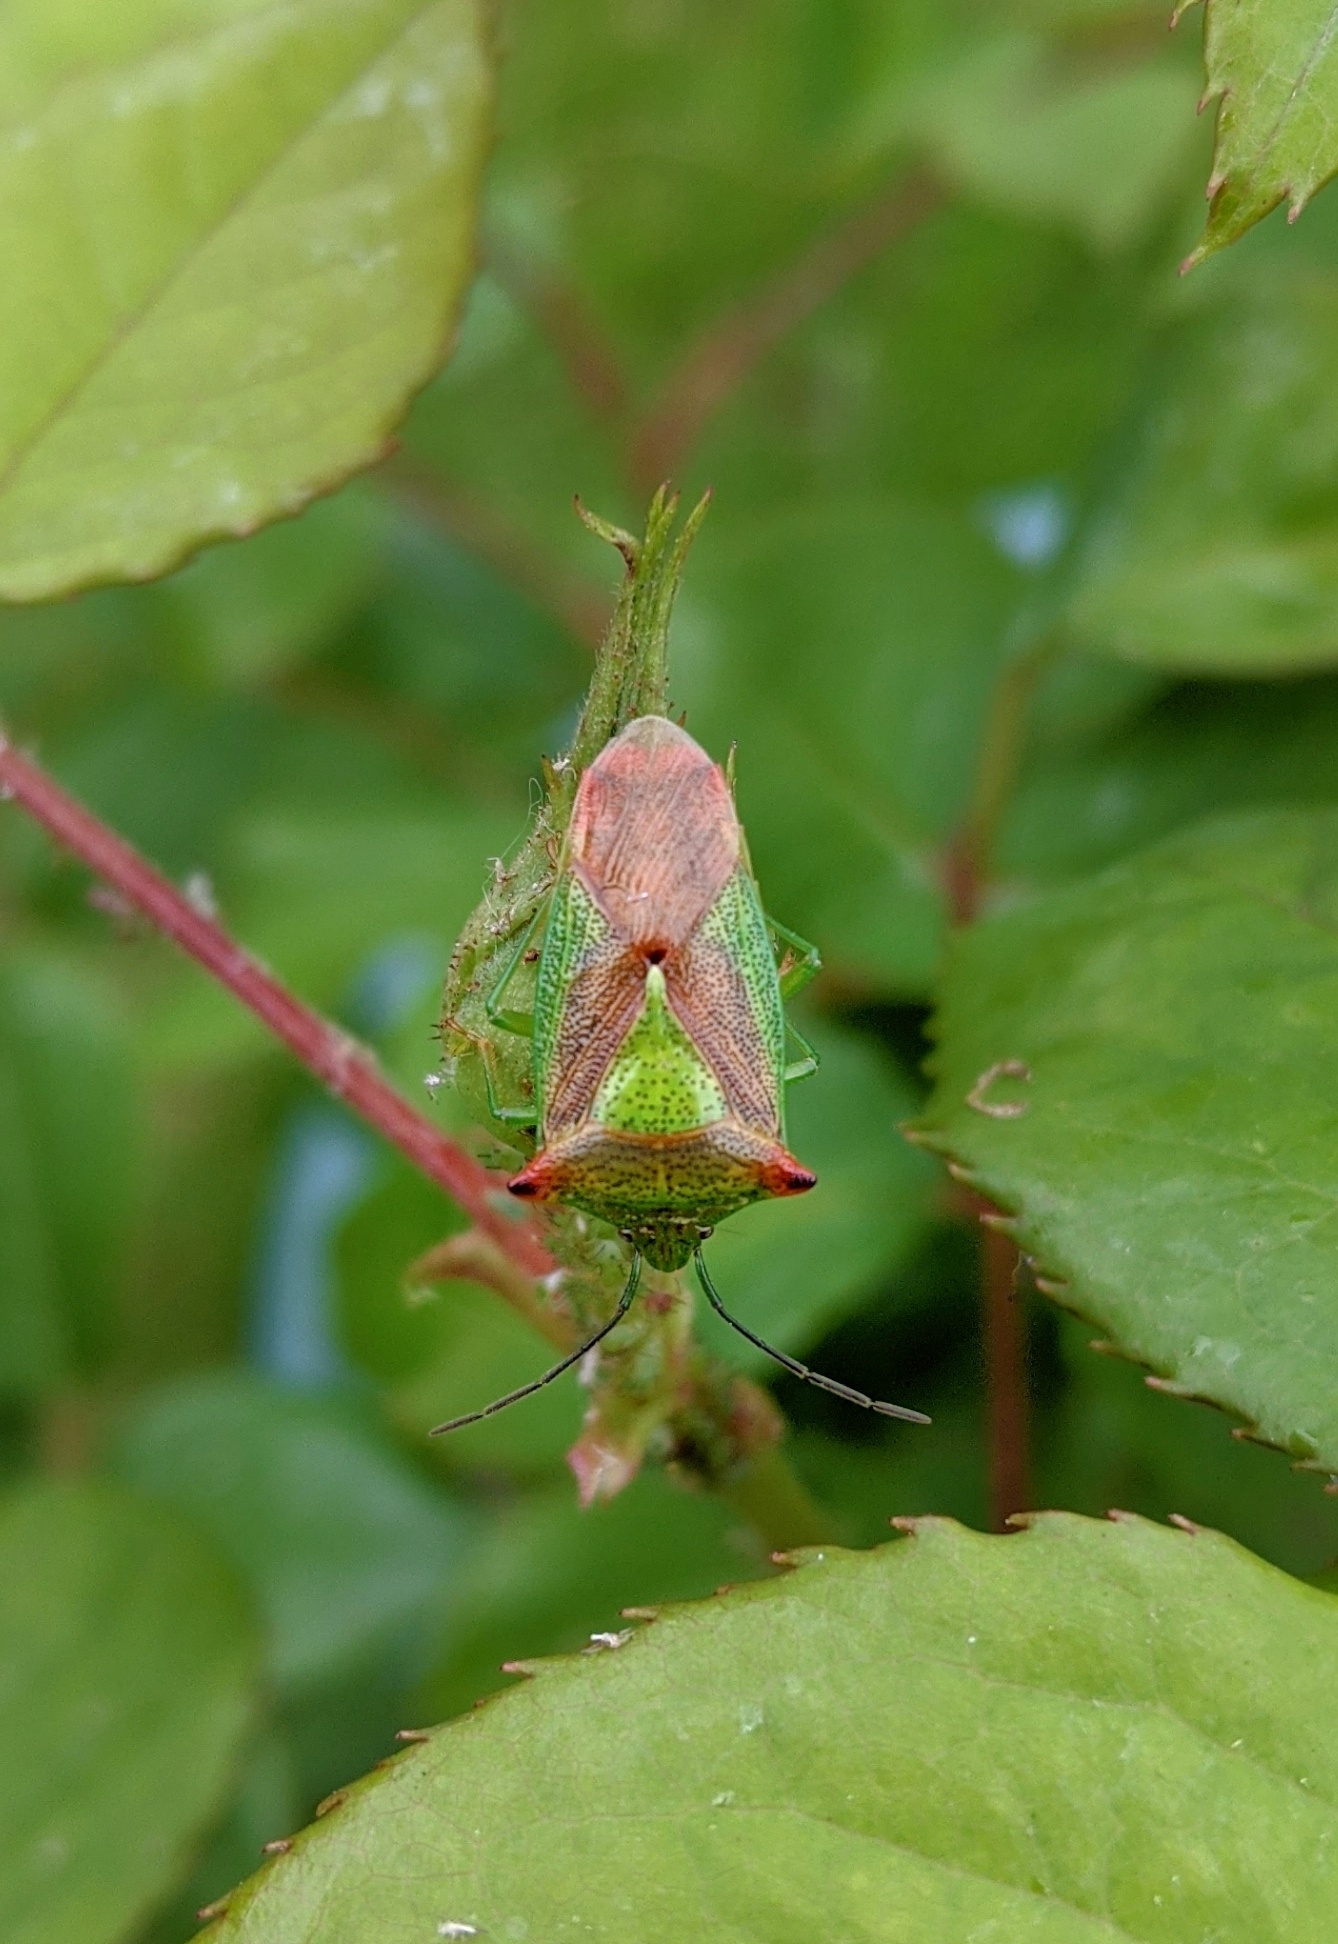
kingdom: Animalia
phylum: Arthropoda
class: Insecta
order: Hemiptera
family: Acanthosomatidae
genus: Acanthosoma
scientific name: Acanthosoma haemorrhoidale
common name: Hawthorn shieldbug
